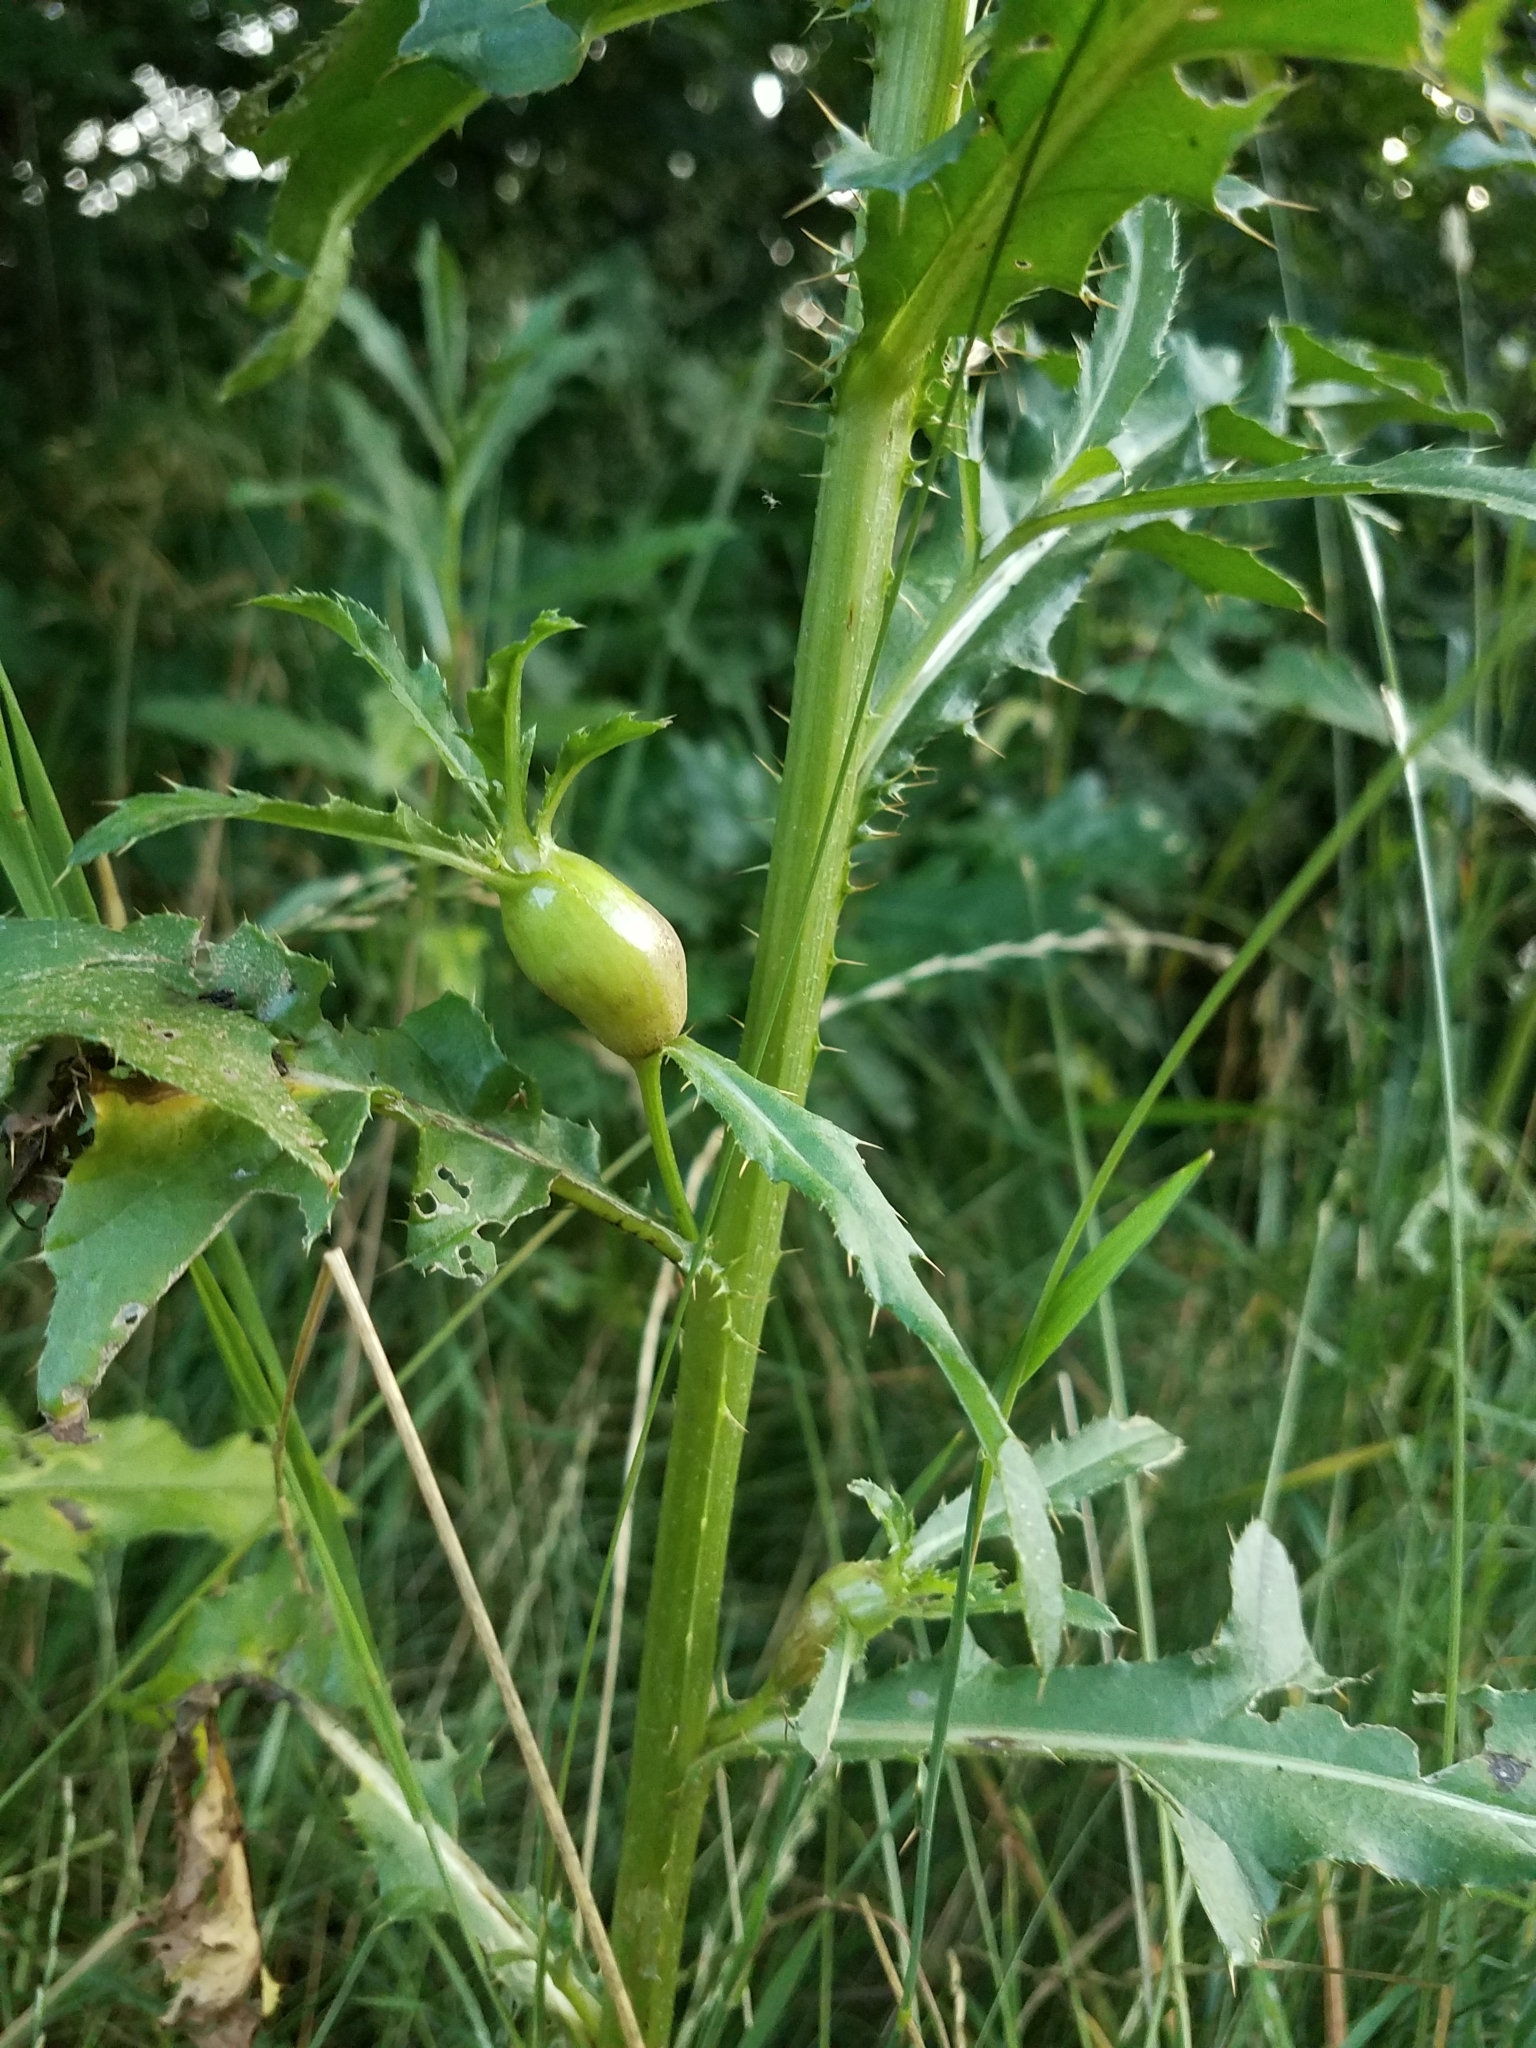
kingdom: Animalia
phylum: Arthropoda
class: Insecta
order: Diptera
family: Tephritidae
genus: Urophora
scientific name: Urophora cardui
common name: Fruit fly
